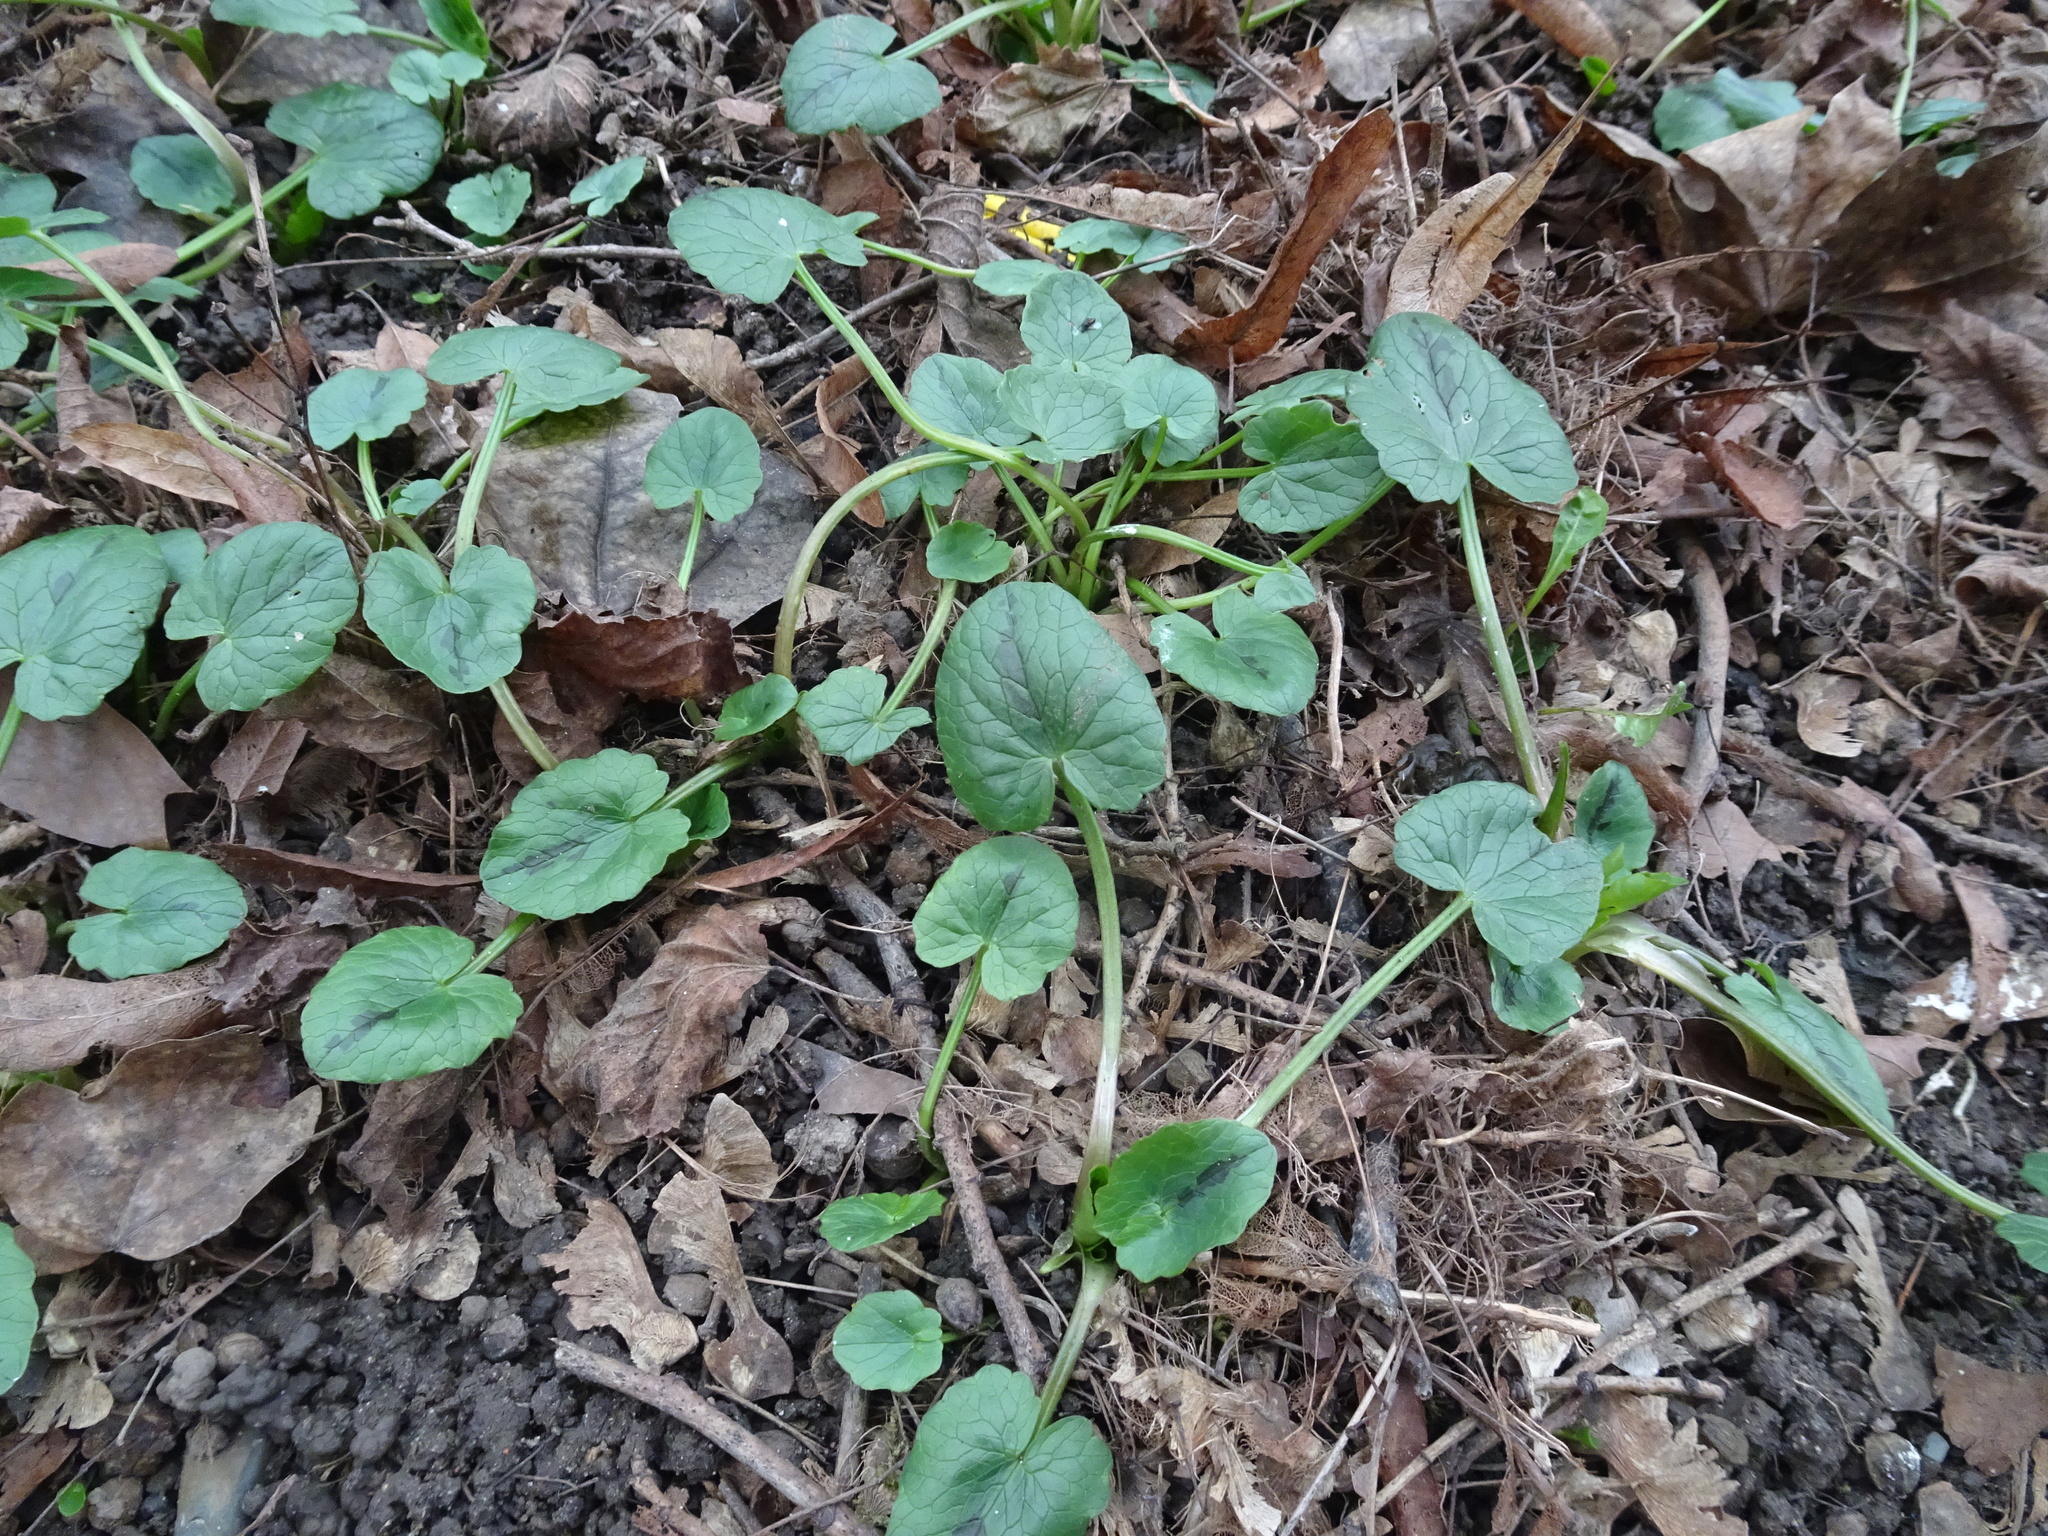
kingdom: Plantae
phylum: Tracheophyta
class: Magnoliopsida
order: Ranunculales
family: Ranunculaceae
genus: Ficaria
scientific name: Ficaria verna
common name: Lesser celandine
